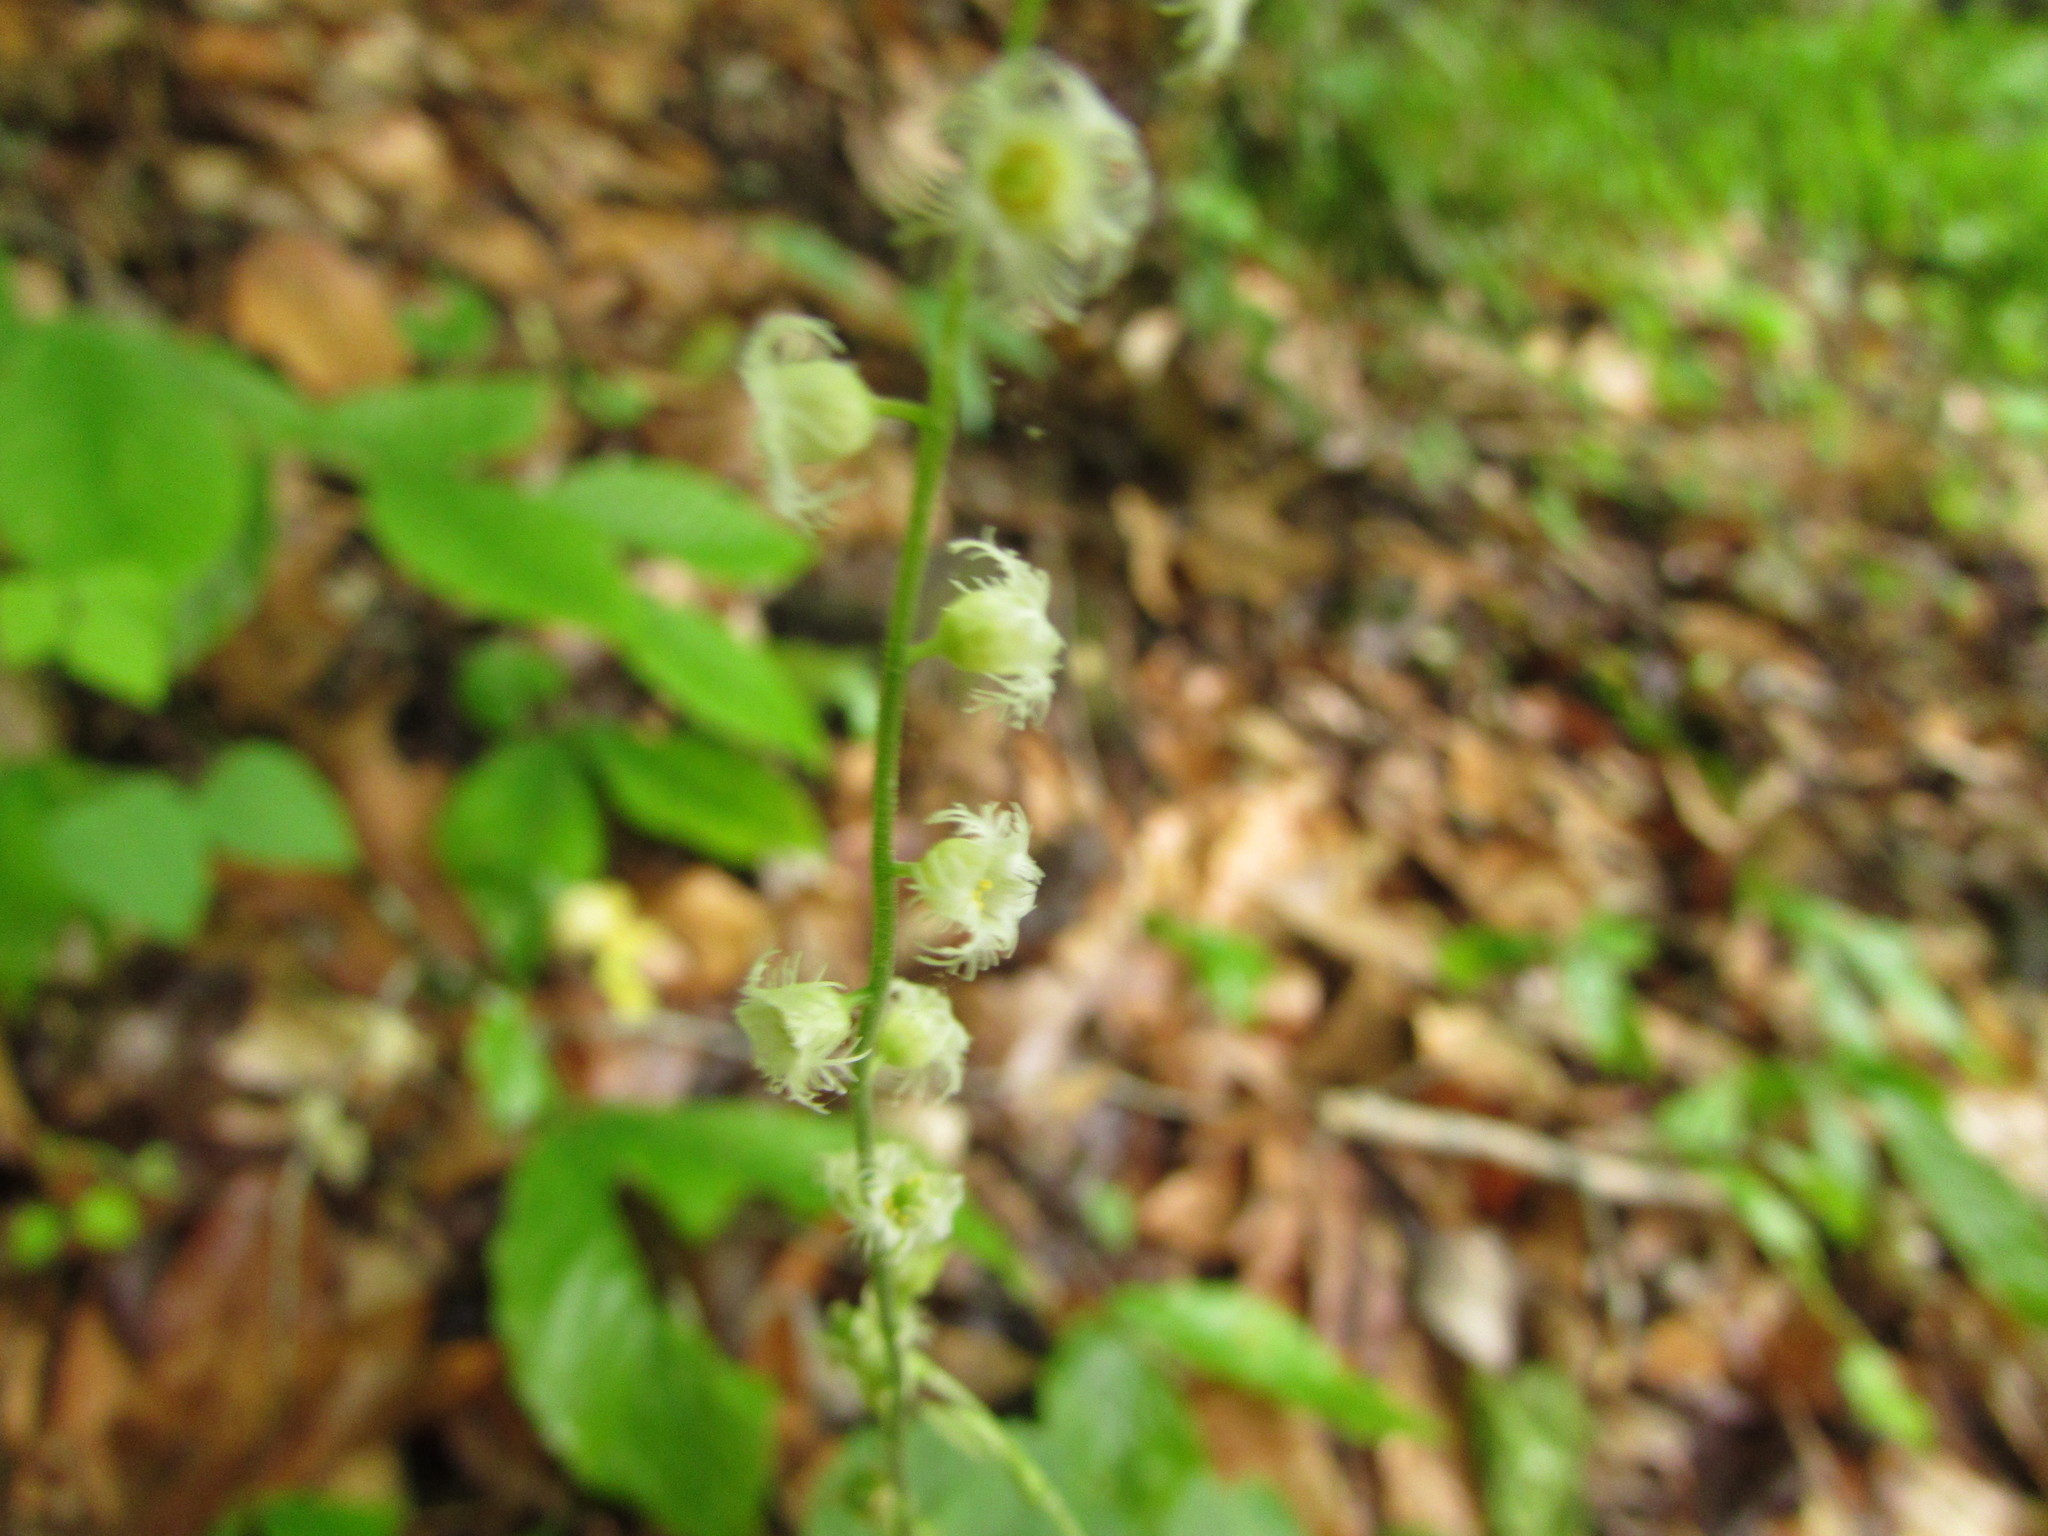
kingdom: Plantae
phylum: Tracheophyta
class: Magnoliopsida
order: Saxifragales
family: Saxifragaceae
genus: Mitella
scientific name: Mitella diphylla
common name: Coolwort
